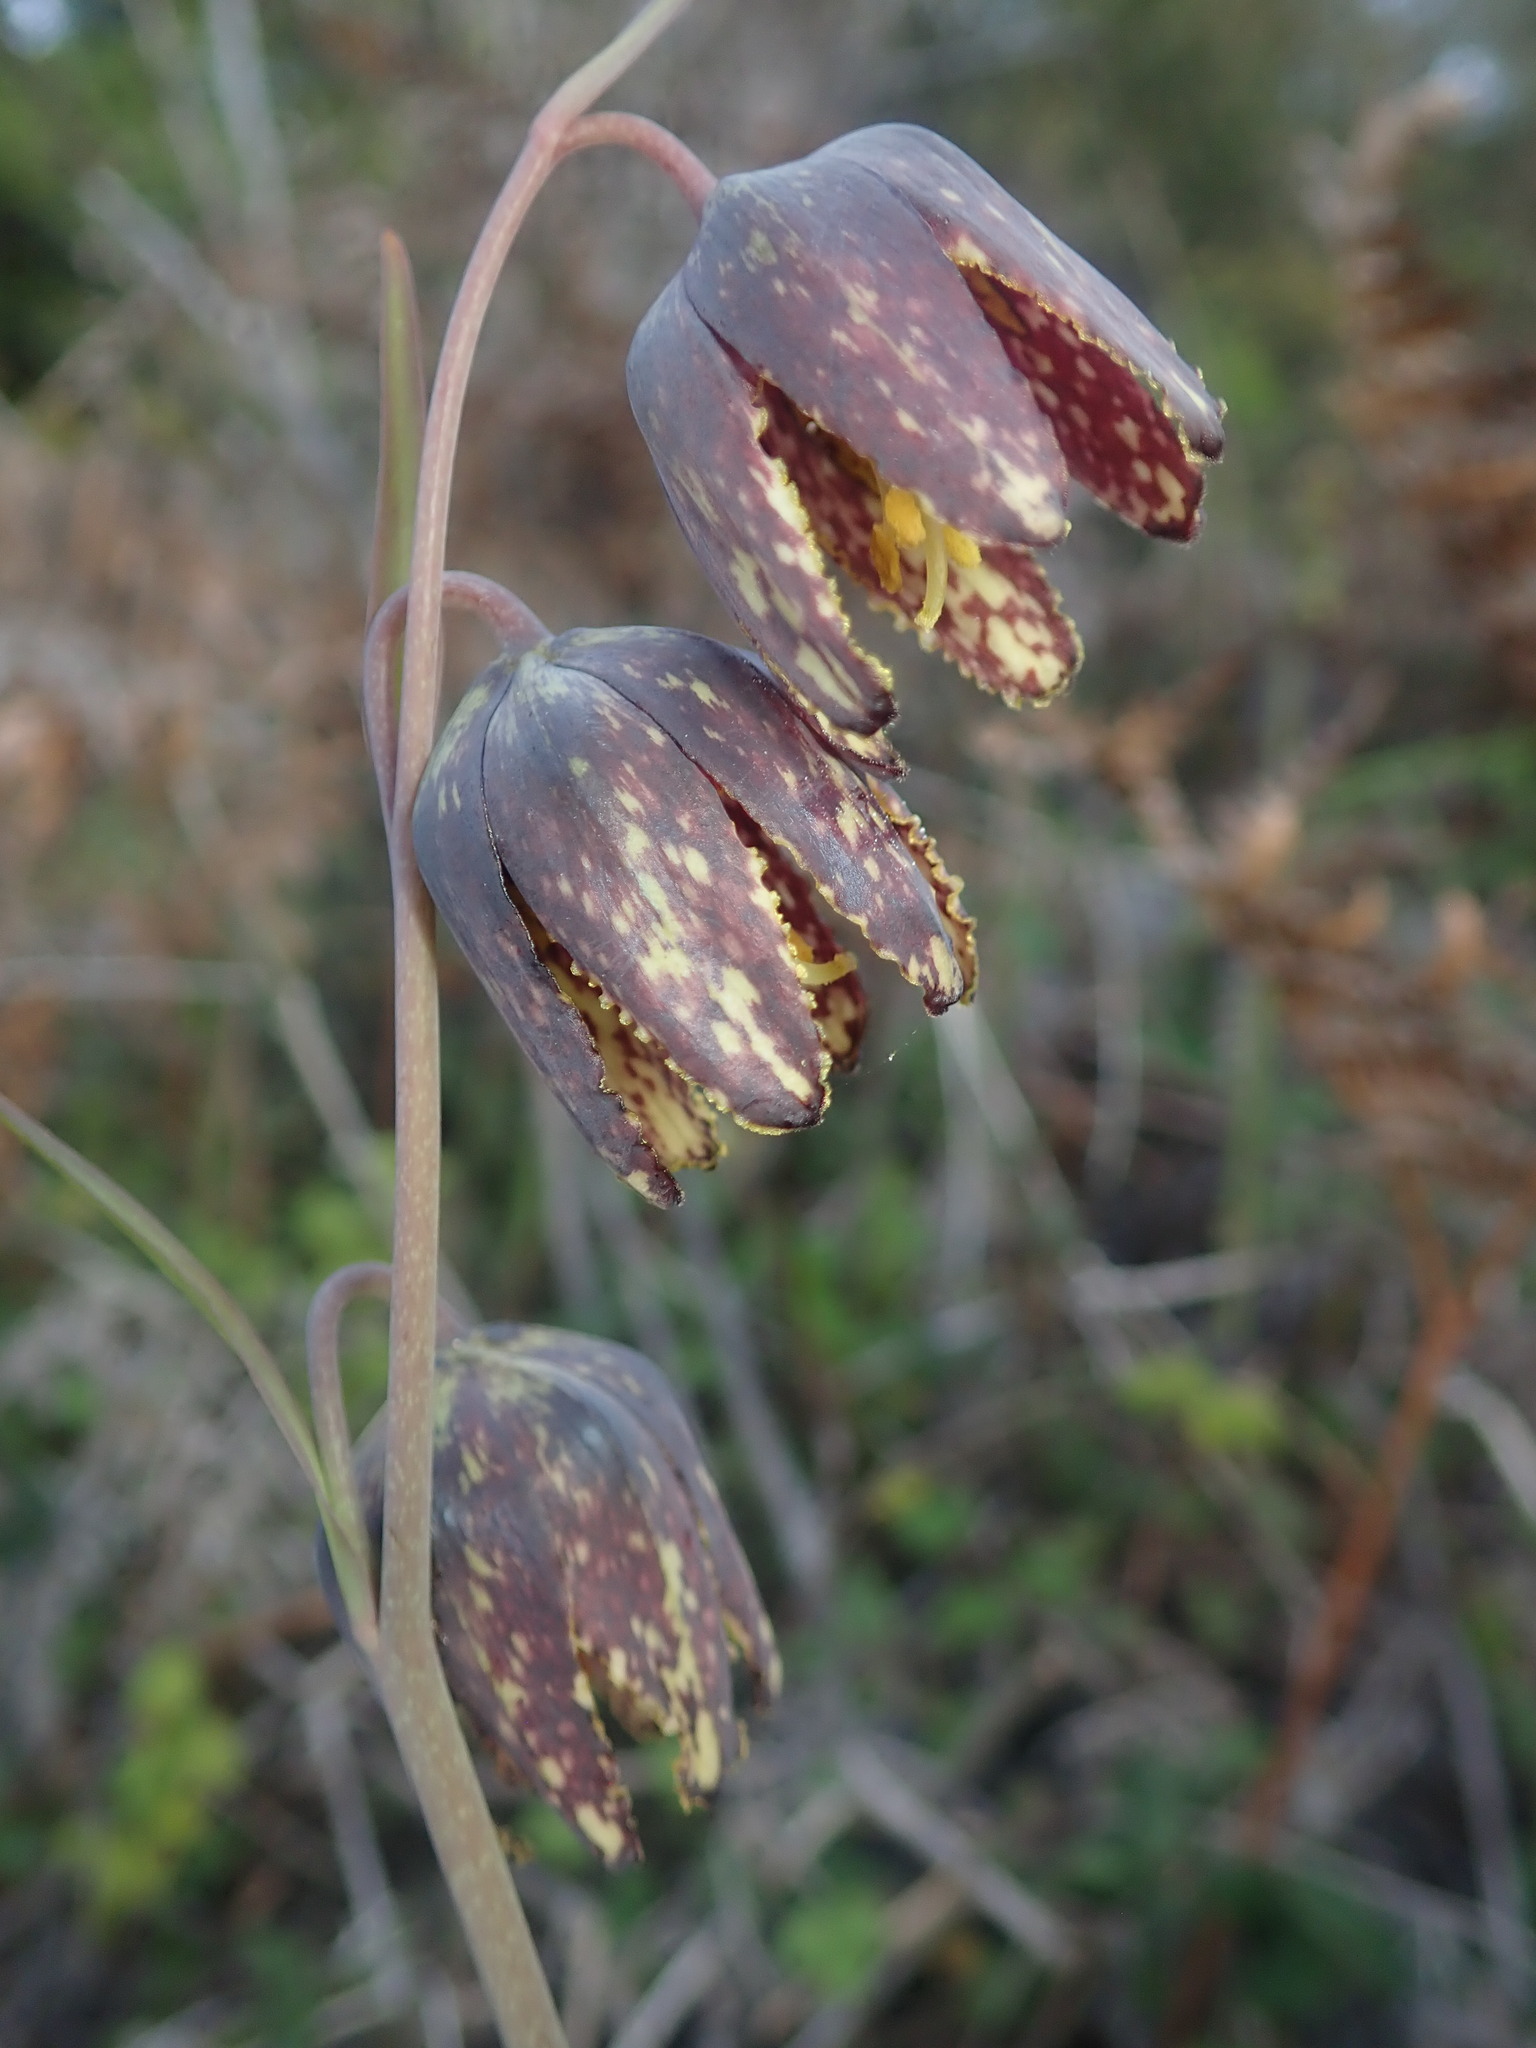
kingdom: Plantae
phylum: Tracheophyta
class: Liliopsida
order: Liliales
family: Liliaceae
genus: Fritillaria
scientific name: Fritillaria affinis
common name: Ojai fritillary
